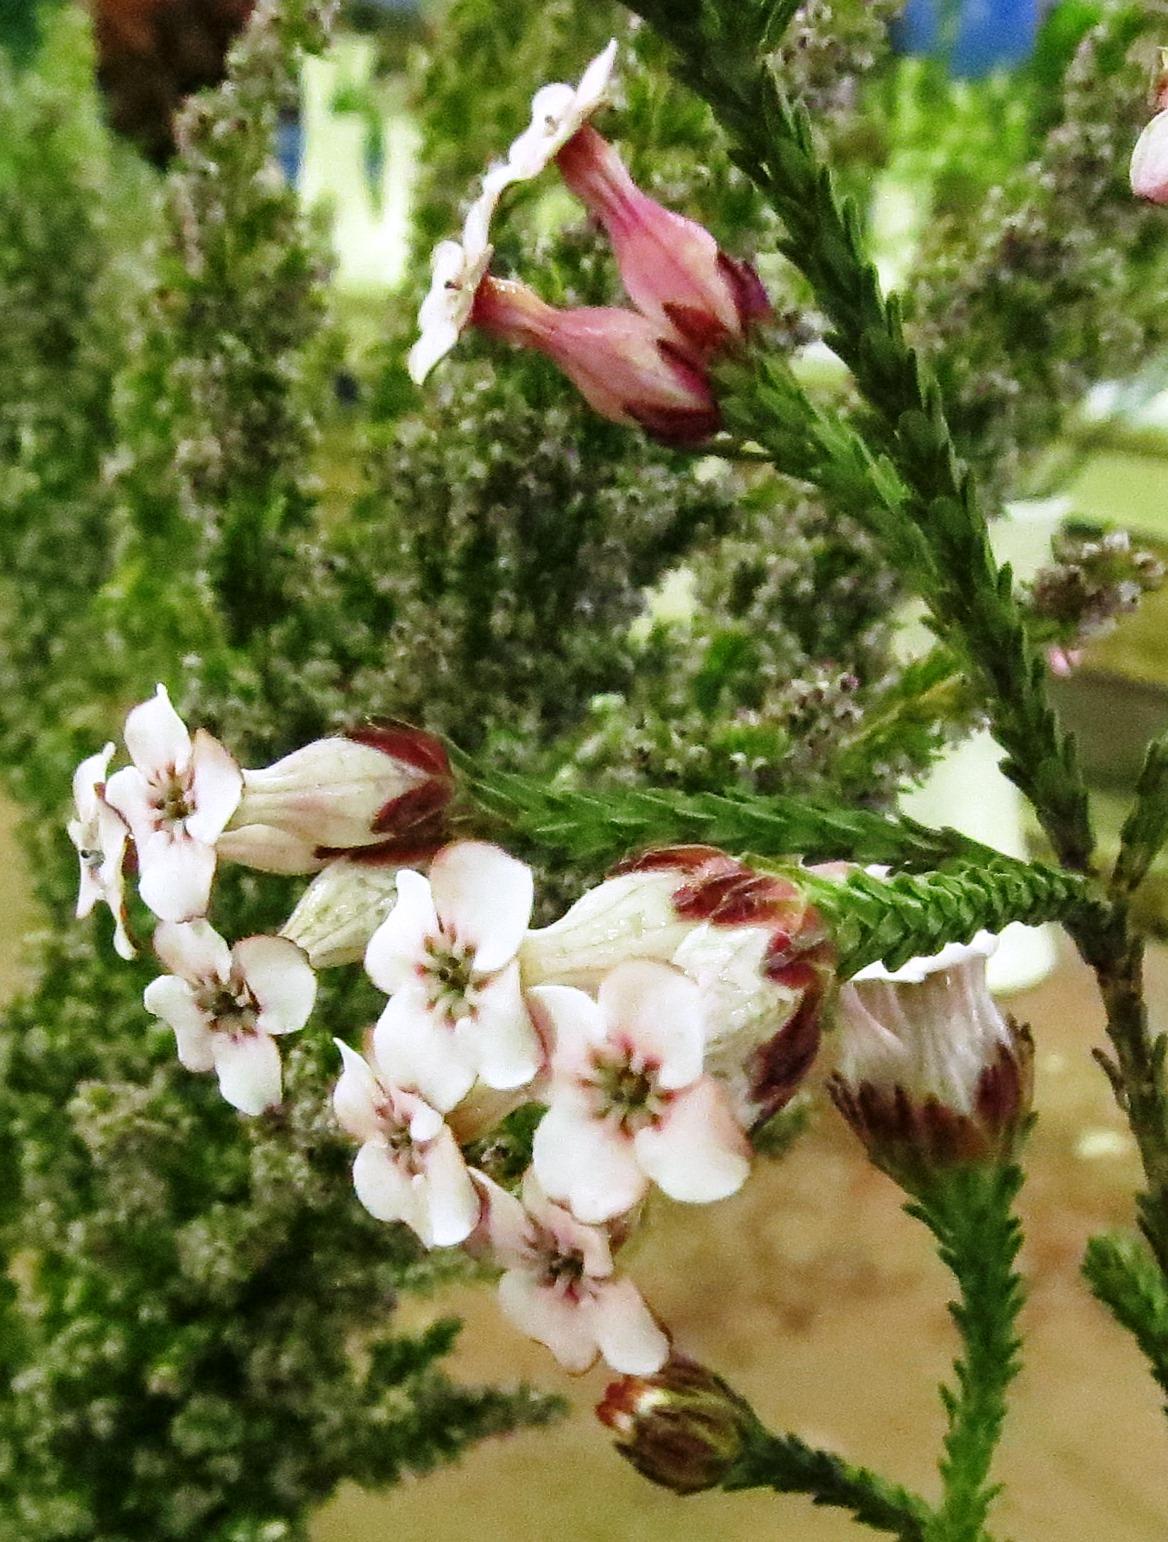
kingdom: Plantae
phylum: Tracheophyta
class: Magnoliopsida
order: Ericales
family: Ericaceae
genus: Erica
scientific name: Erica ampullacea
